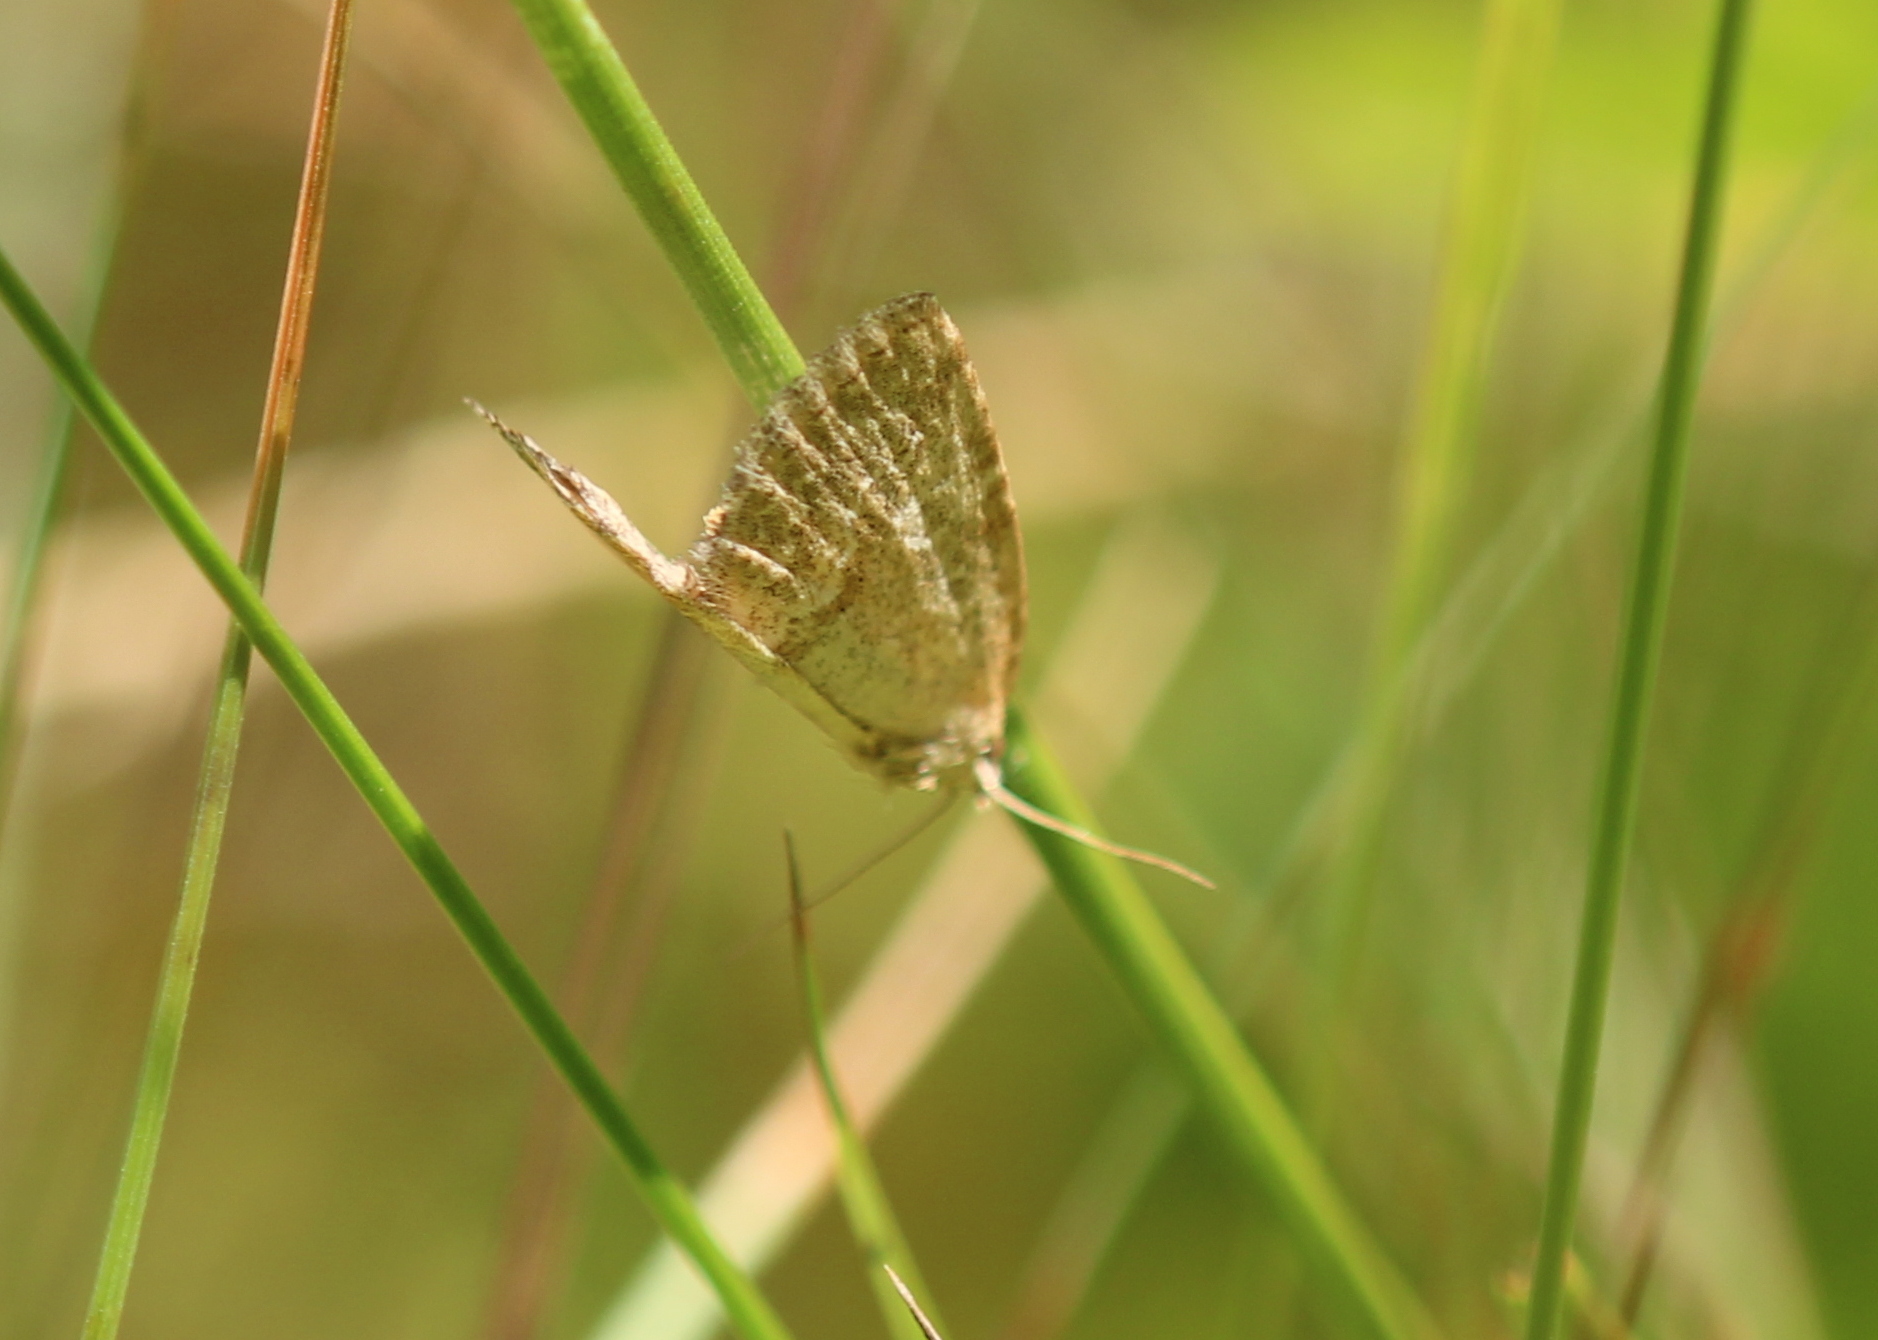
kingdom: Animalia
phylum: Arthropoda
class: Insecta
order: Lepidoptera
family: Noctuidae
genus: Protodeltote
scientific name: Protodeltote albidula
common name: Pale glyph
